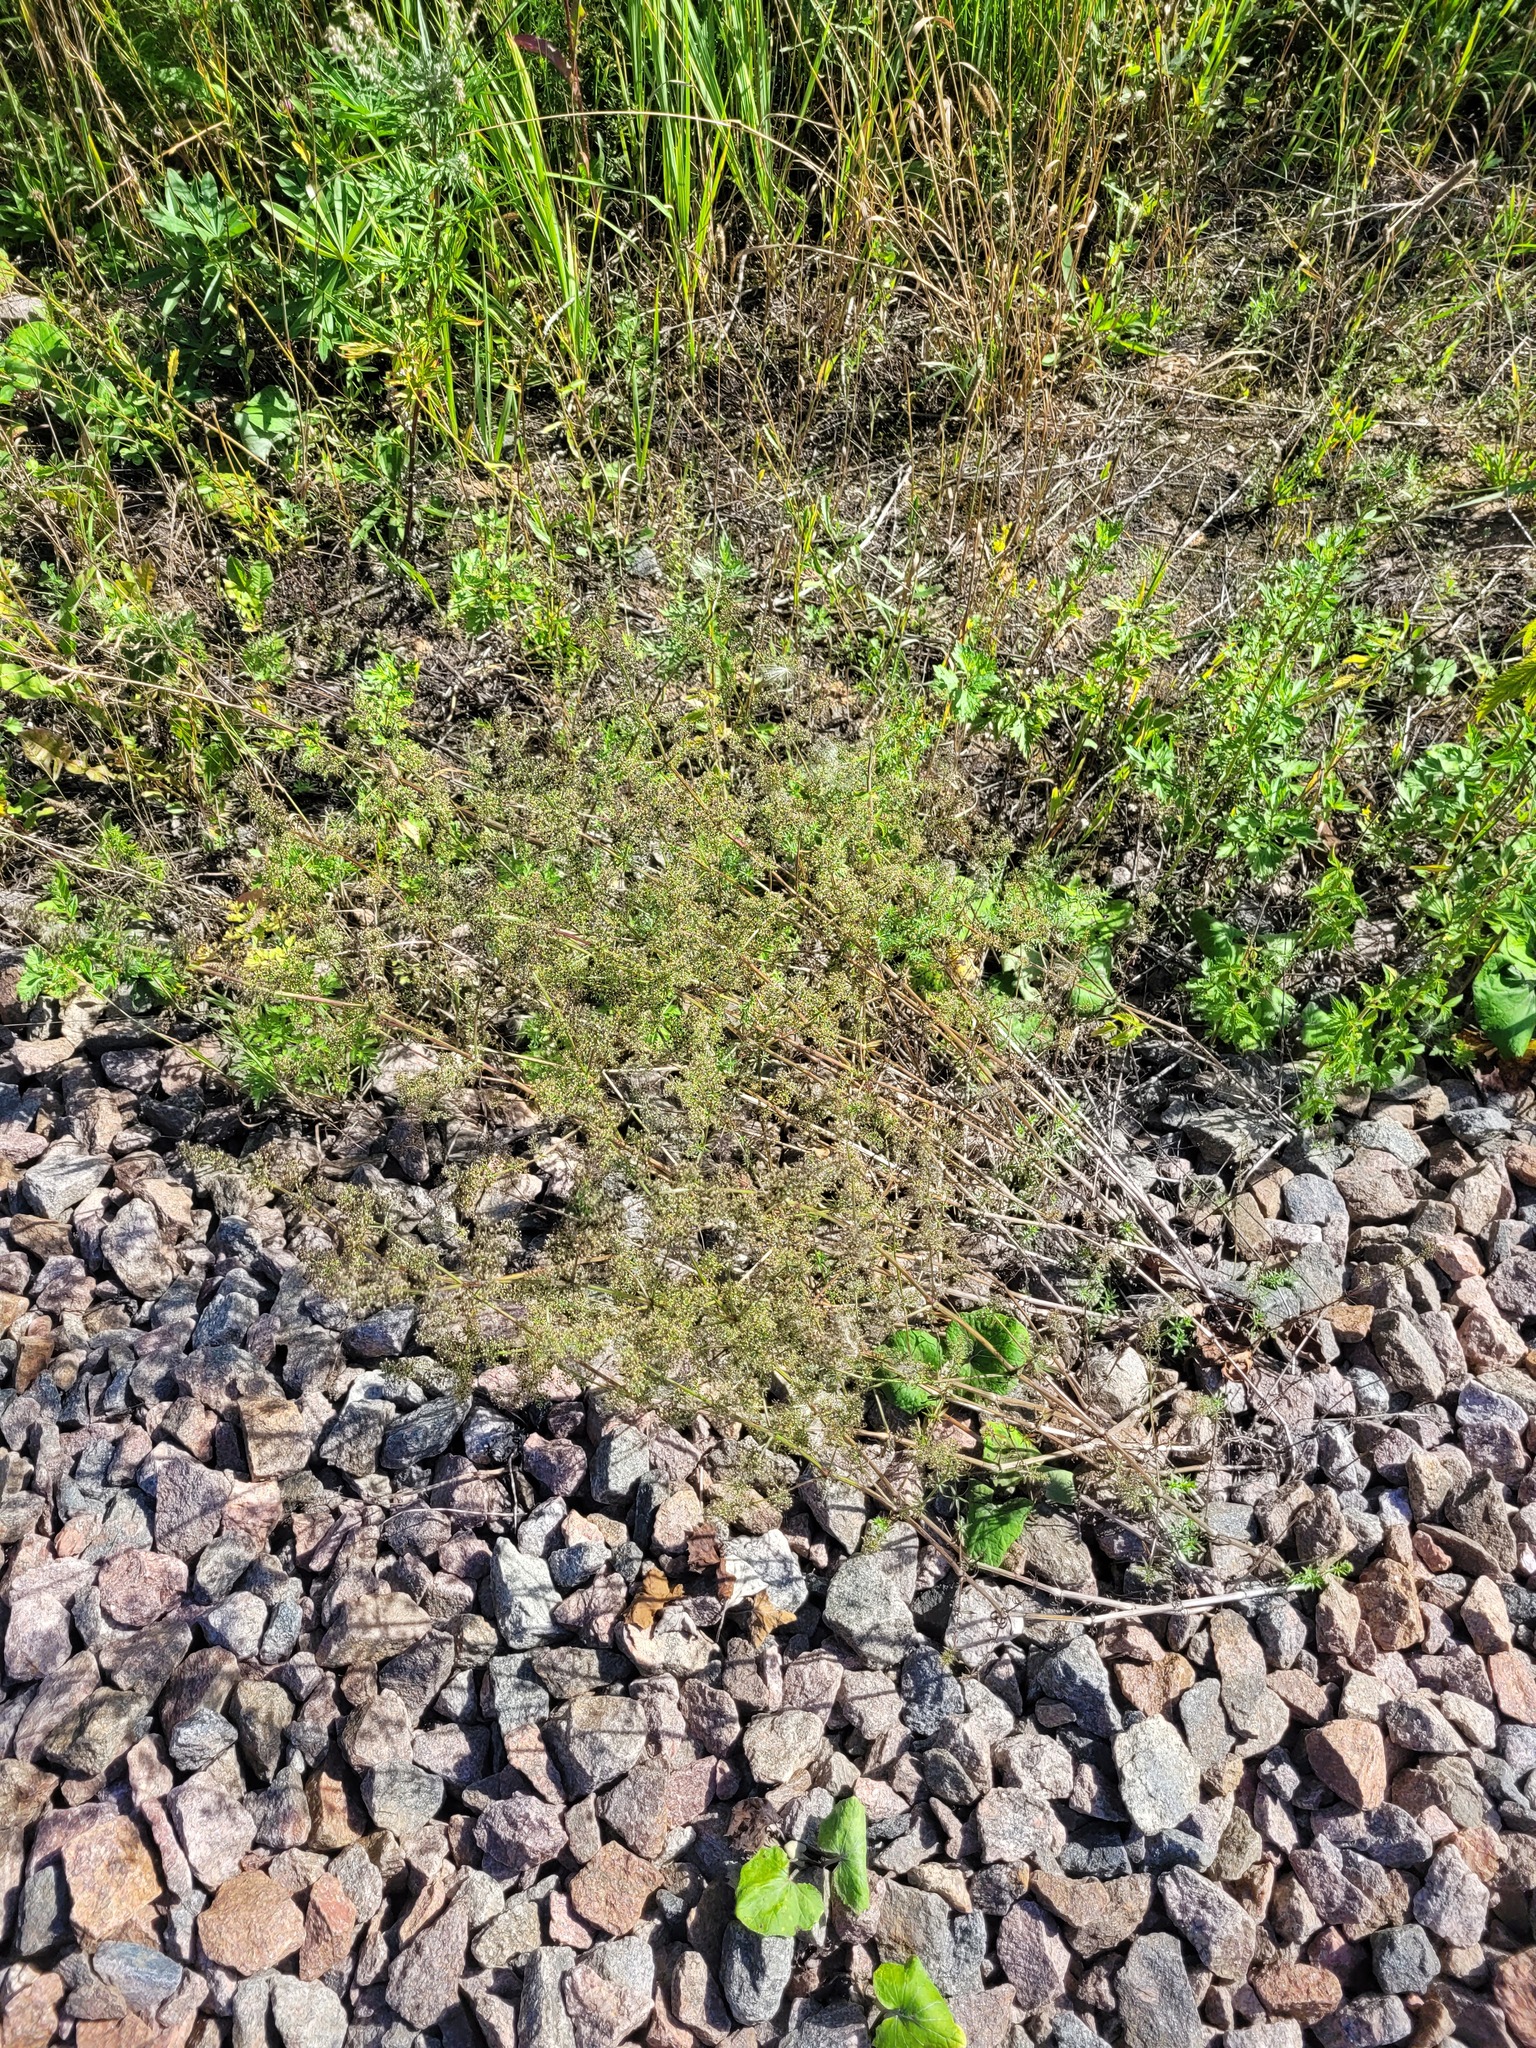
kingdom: Plantae
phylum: Tracheophyta
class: Magnoliopsida
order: Gentianales
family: Rubiaceae
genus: Galium
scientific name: Galium mollugo
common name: Hedge bedstraw
